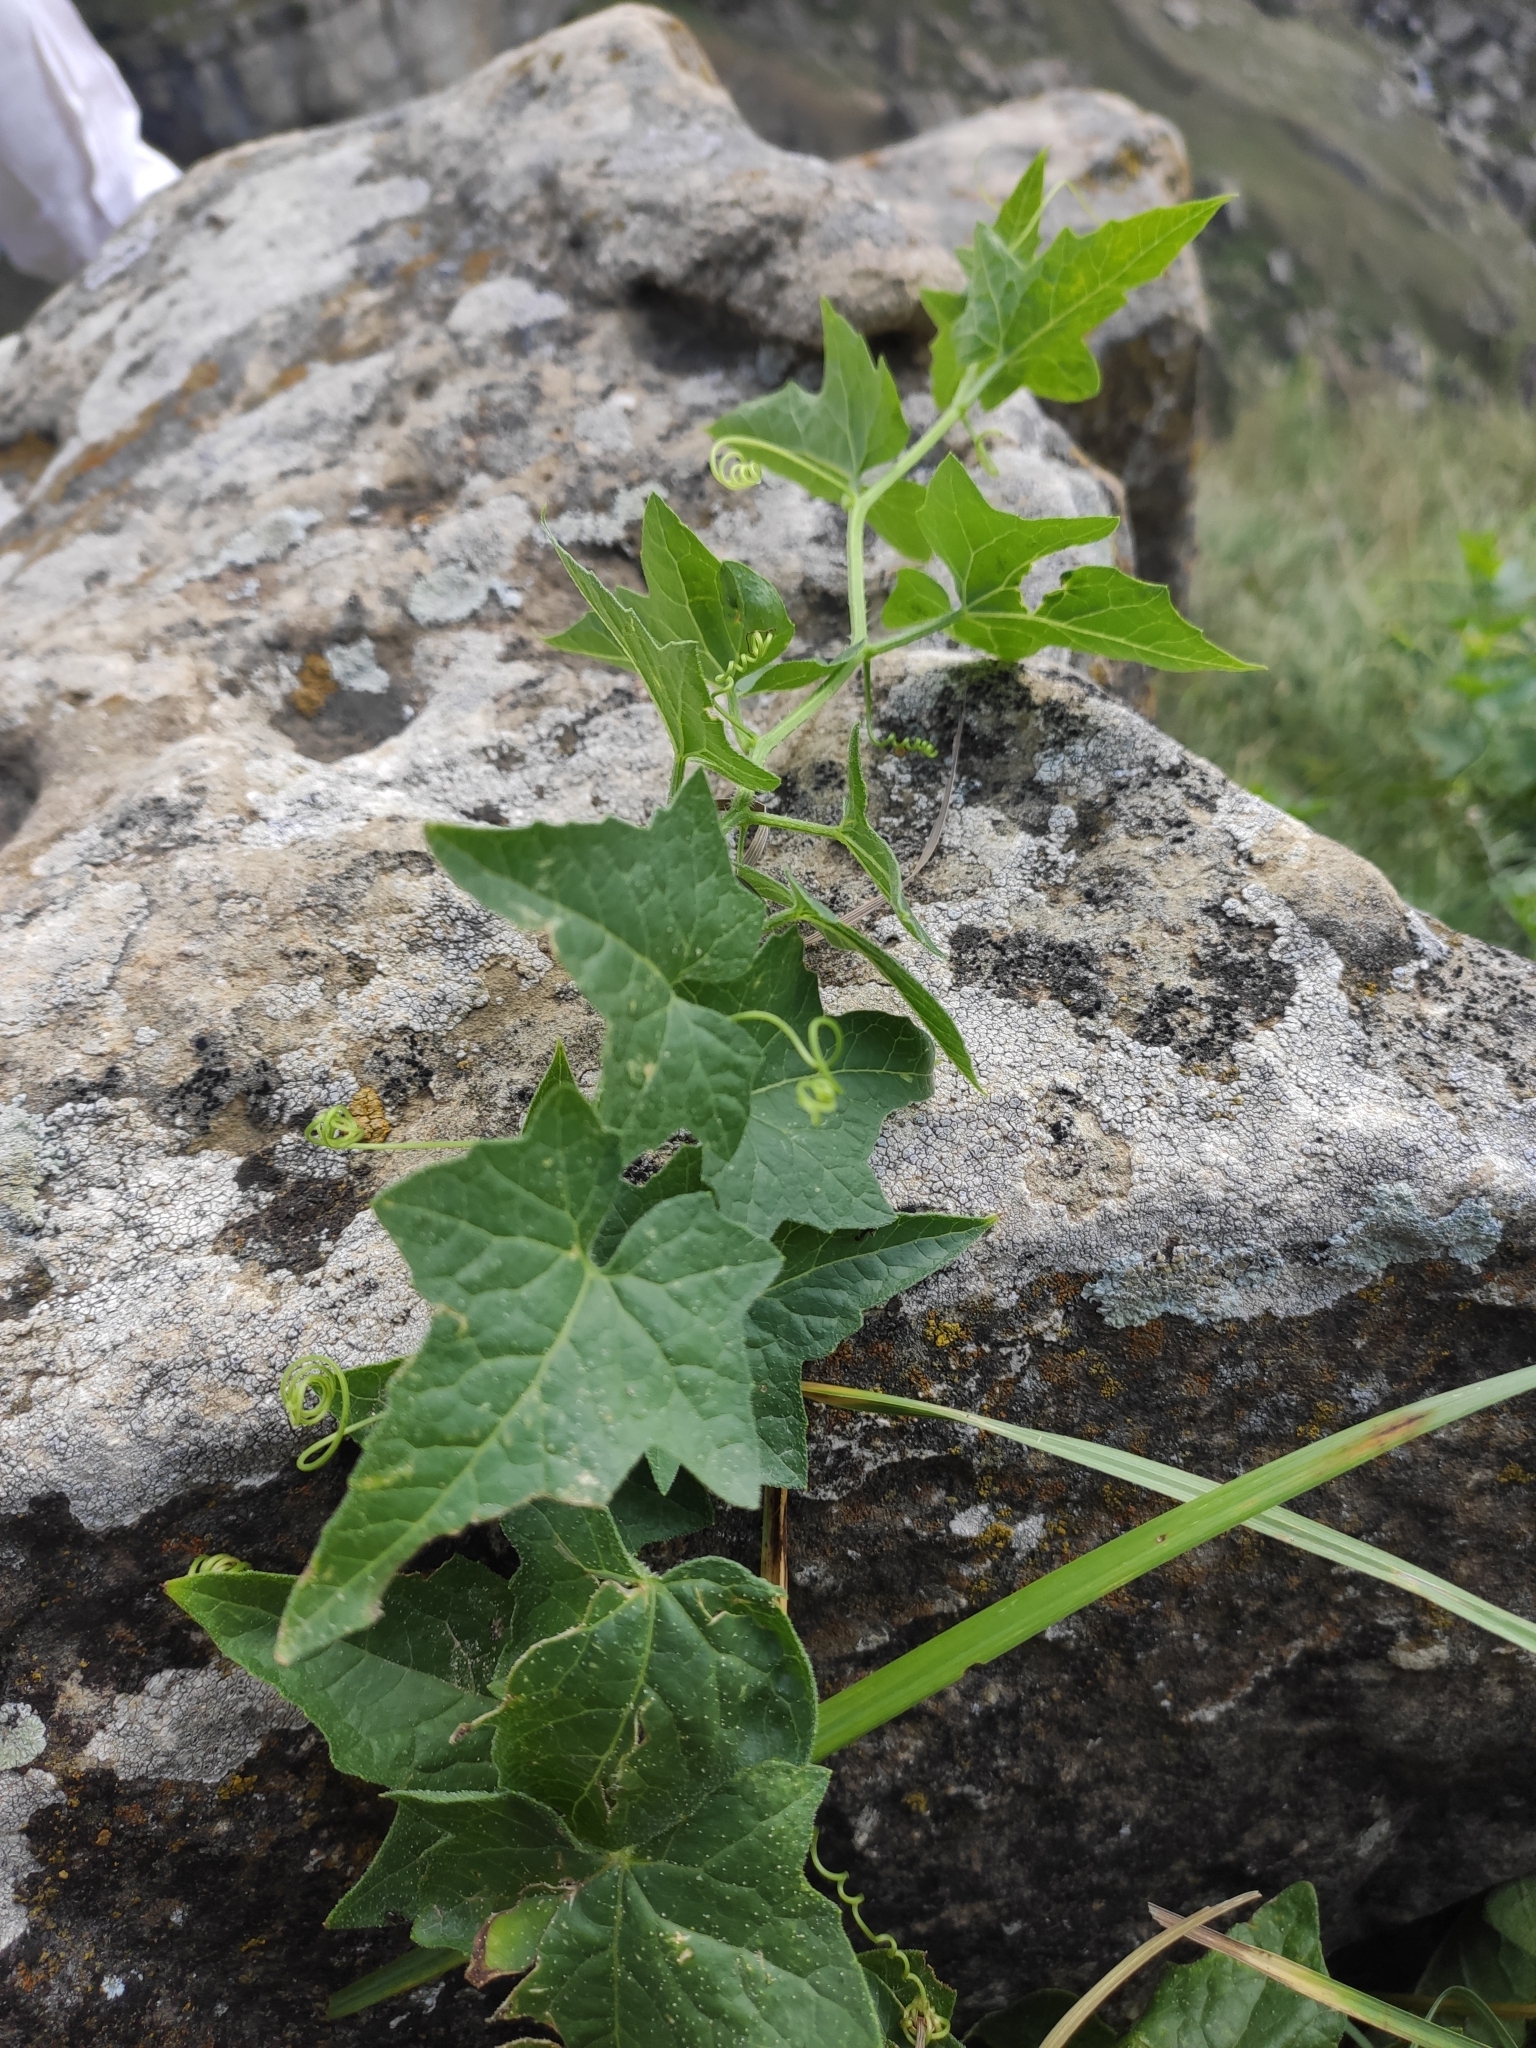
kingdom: Plantae
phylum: Tracheophyta
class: Magnoliopsida
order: Cucurbitales
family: Cucurbitaceae
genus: Bryonia
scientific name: Bryonia alba
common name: White bryony
